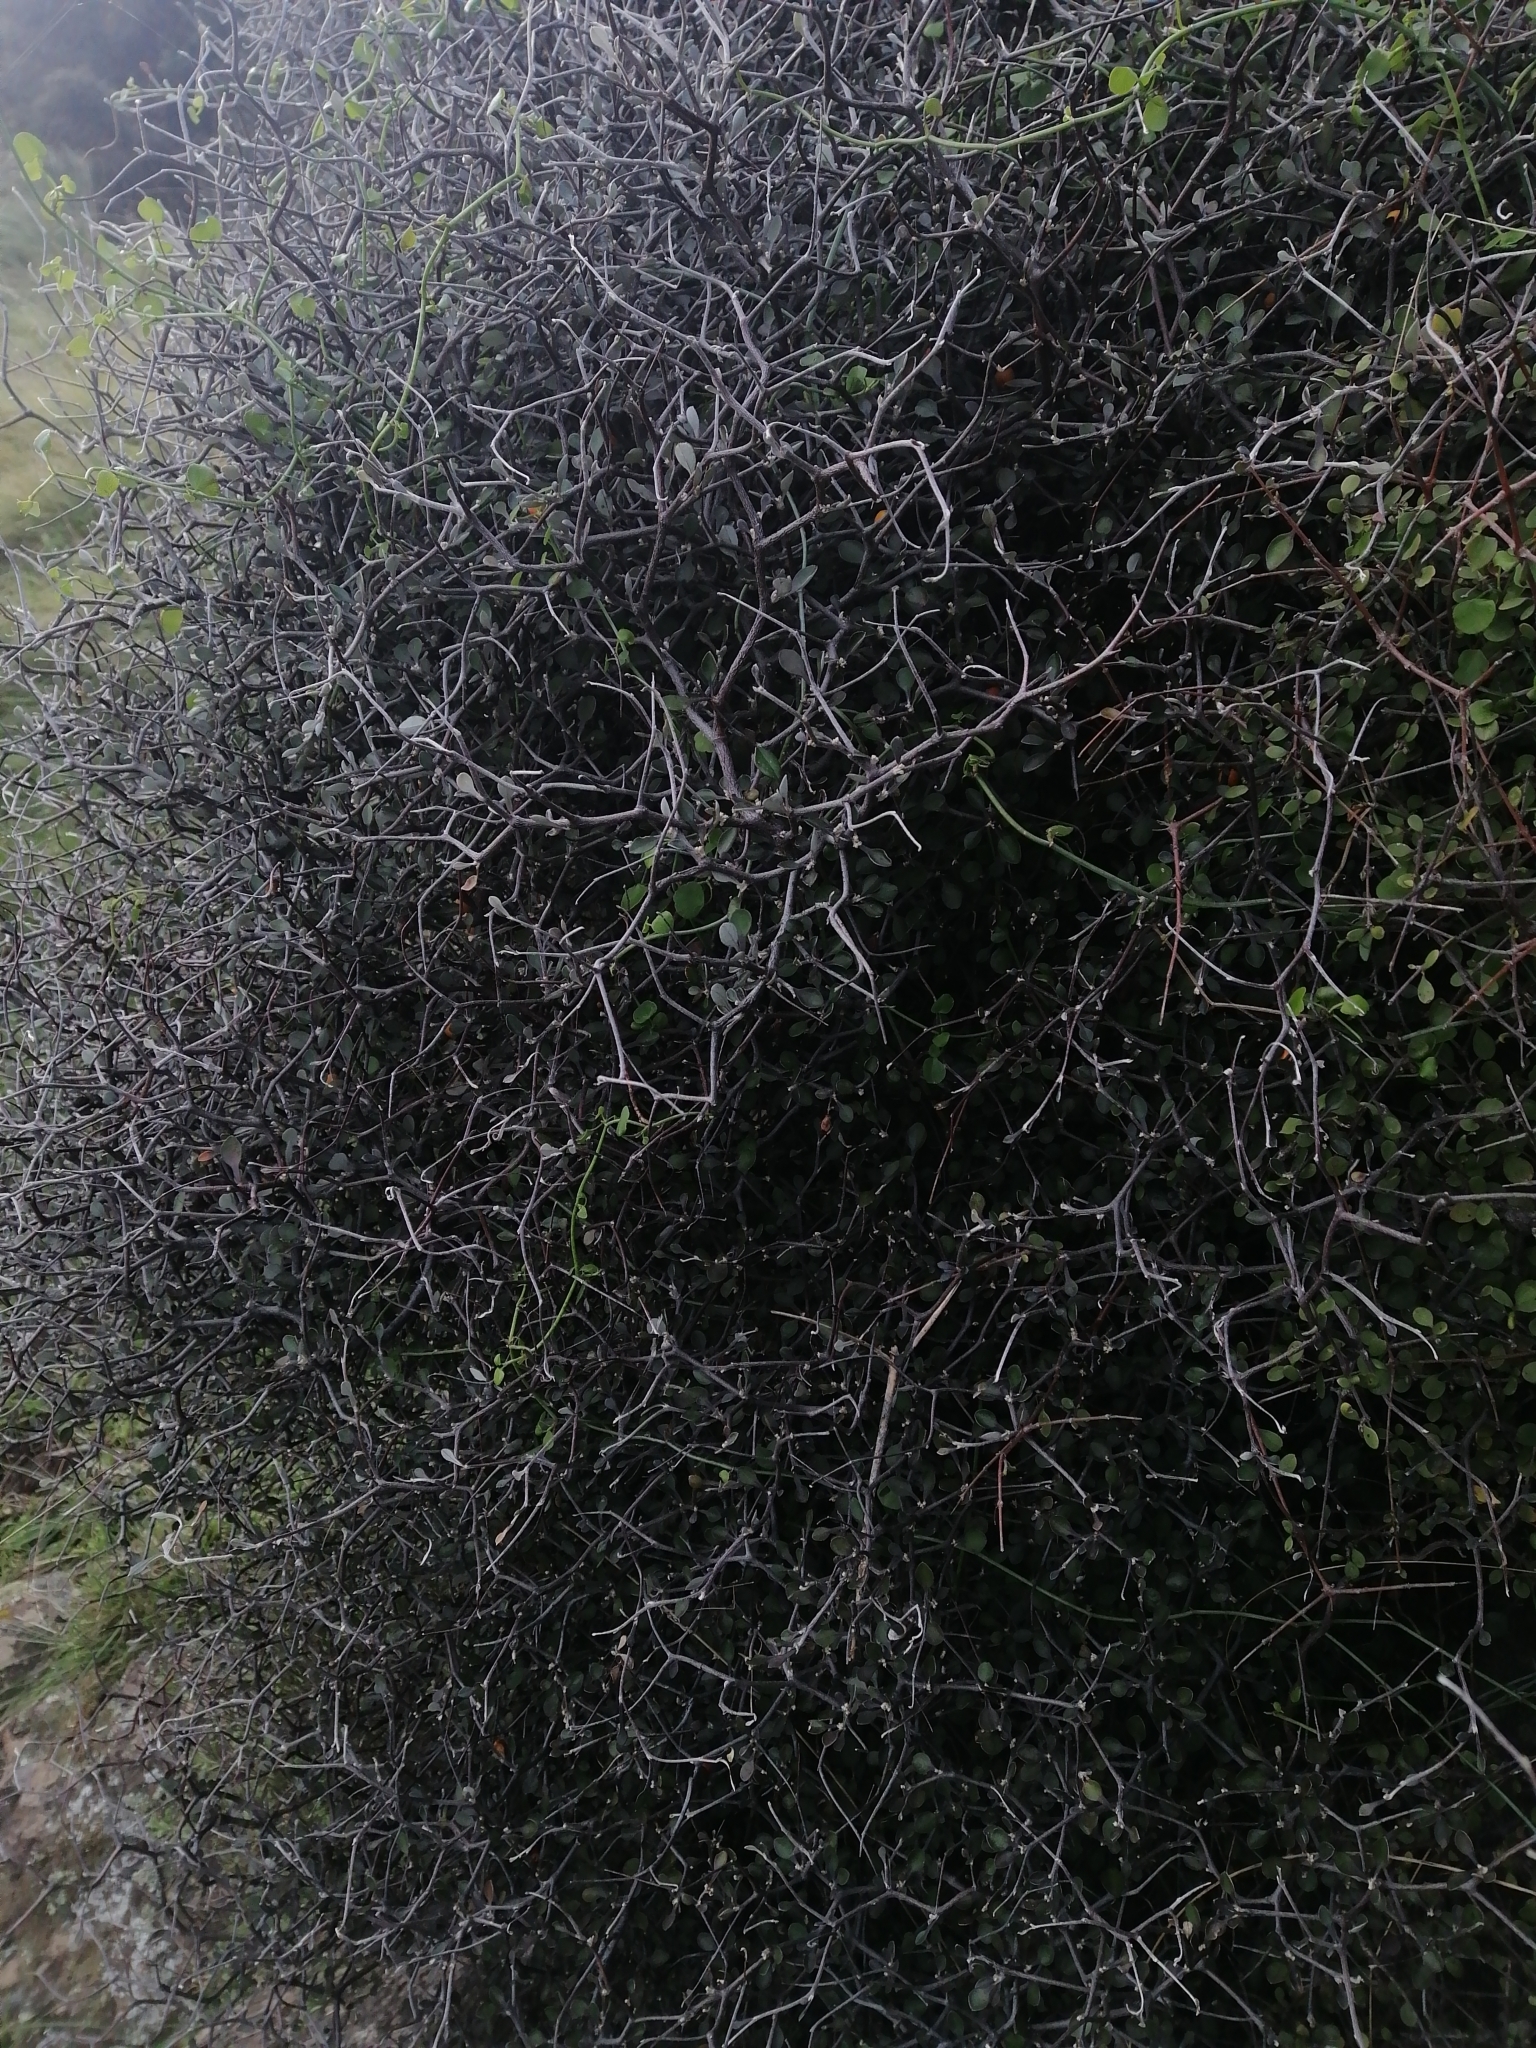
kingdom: Plantae
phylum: Tracheophyta
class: Magnoliopsida
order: Asterales
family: Argophyllaceae
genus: Corokia
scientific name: Corokia cotoneaster
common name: Wire nettingbush
